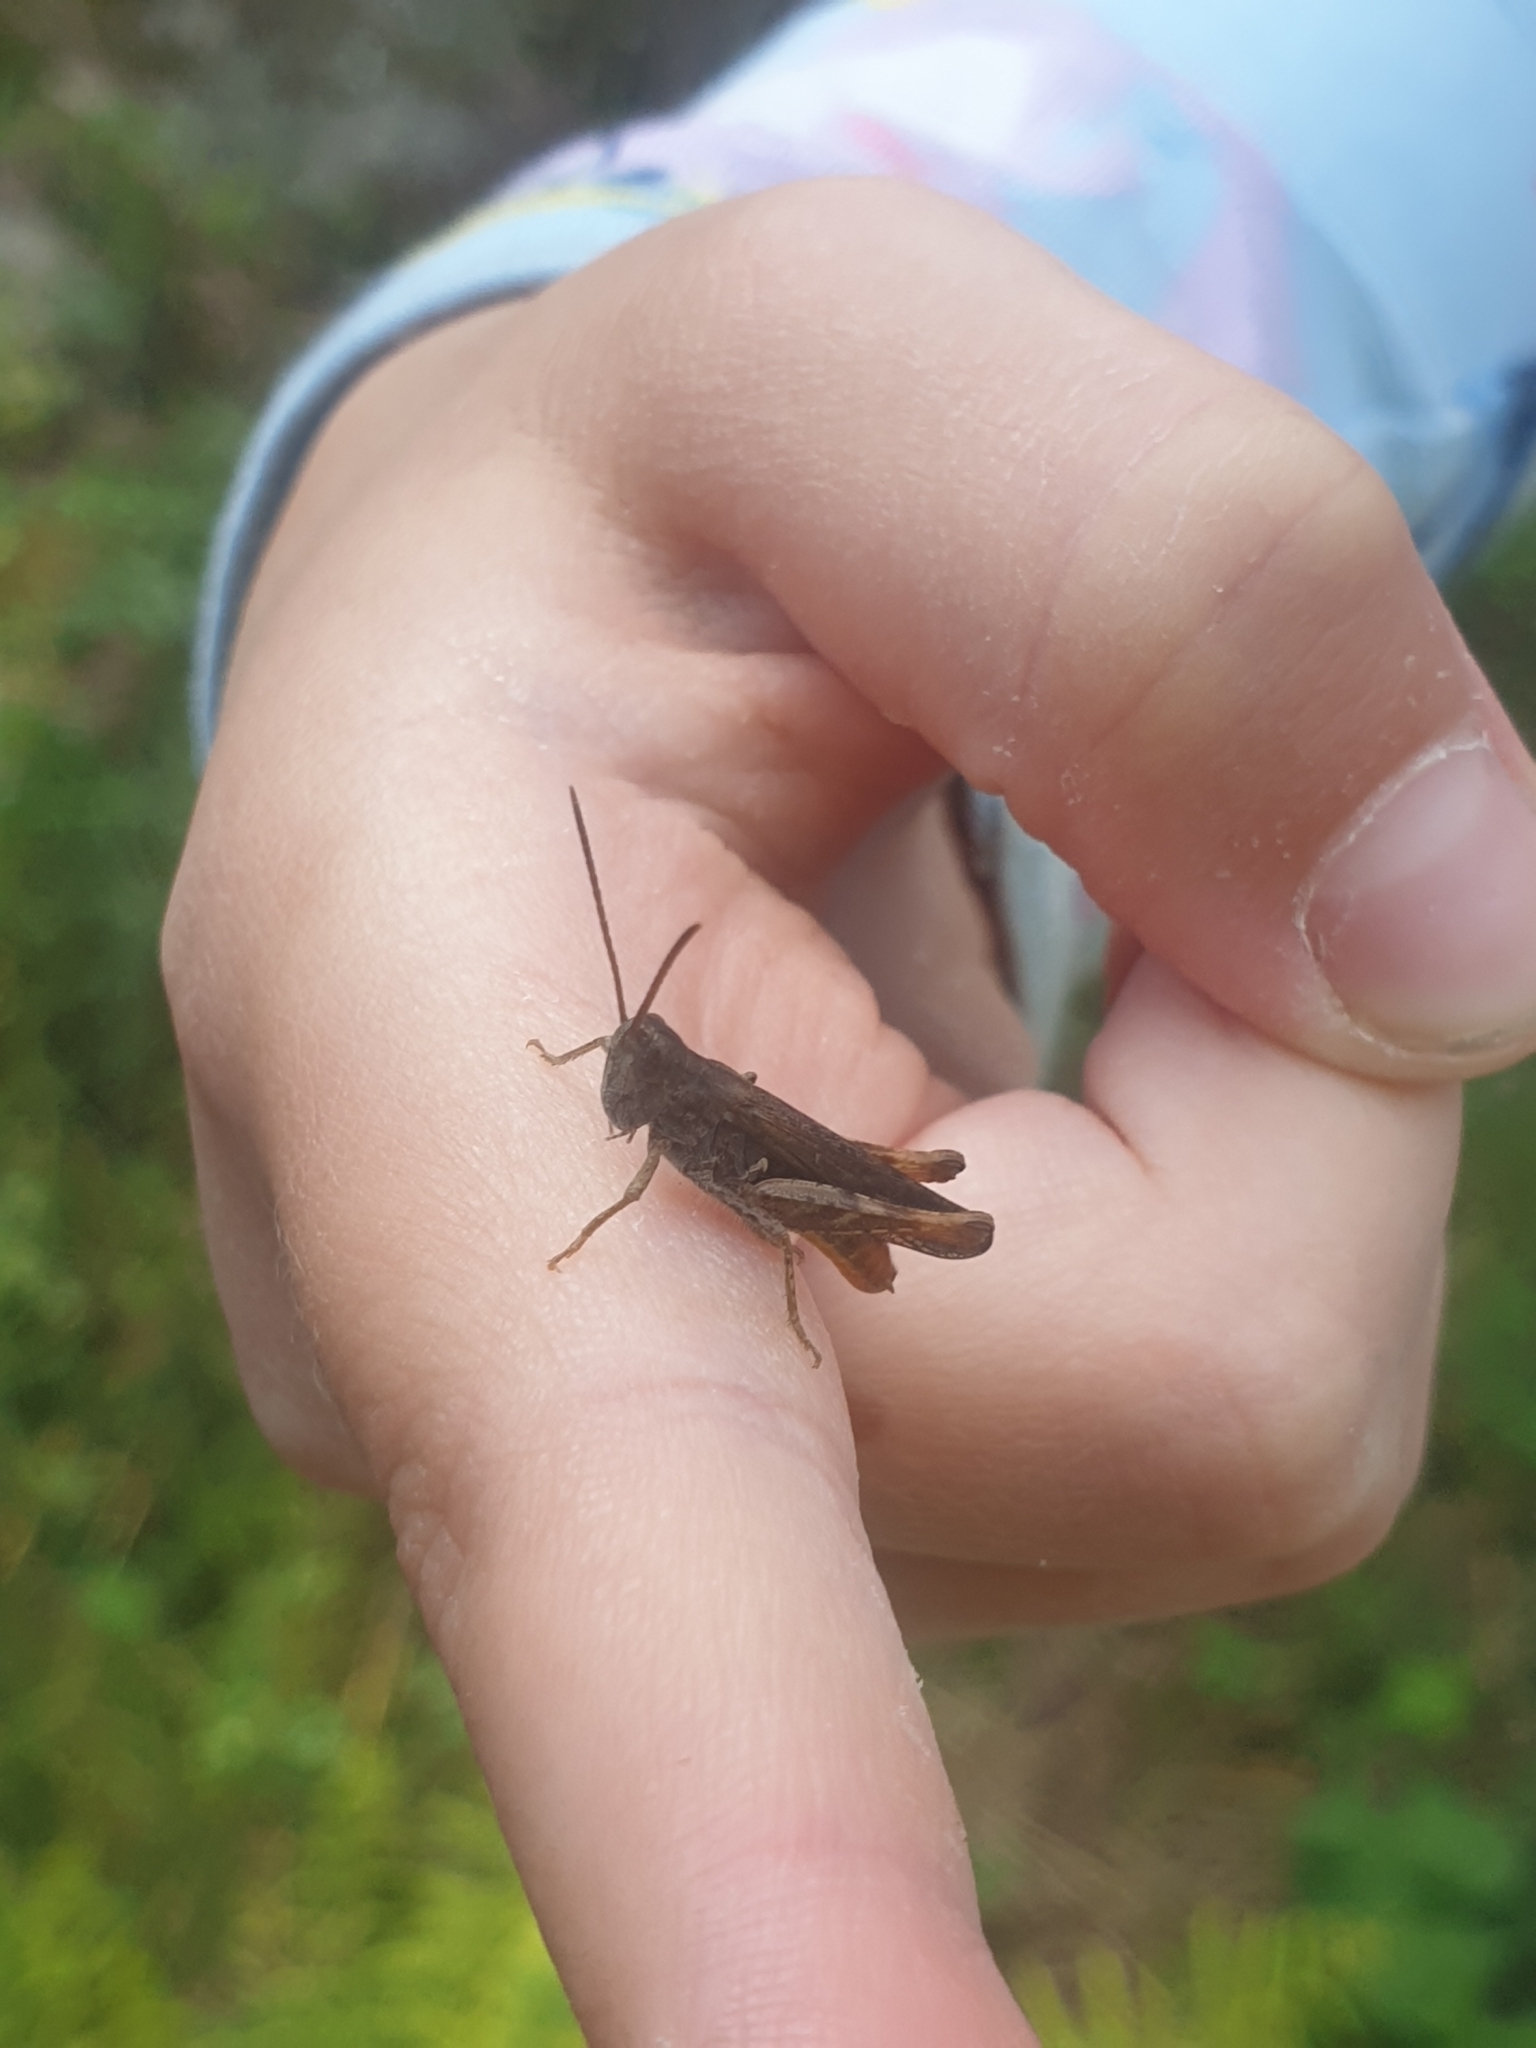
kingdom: Animalia
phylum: Arthropoda
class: Insecta
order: Orthoptera
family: Acrididae
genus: Chorthippus
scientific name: Chorthippus brunneus
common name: Field grasshopper
